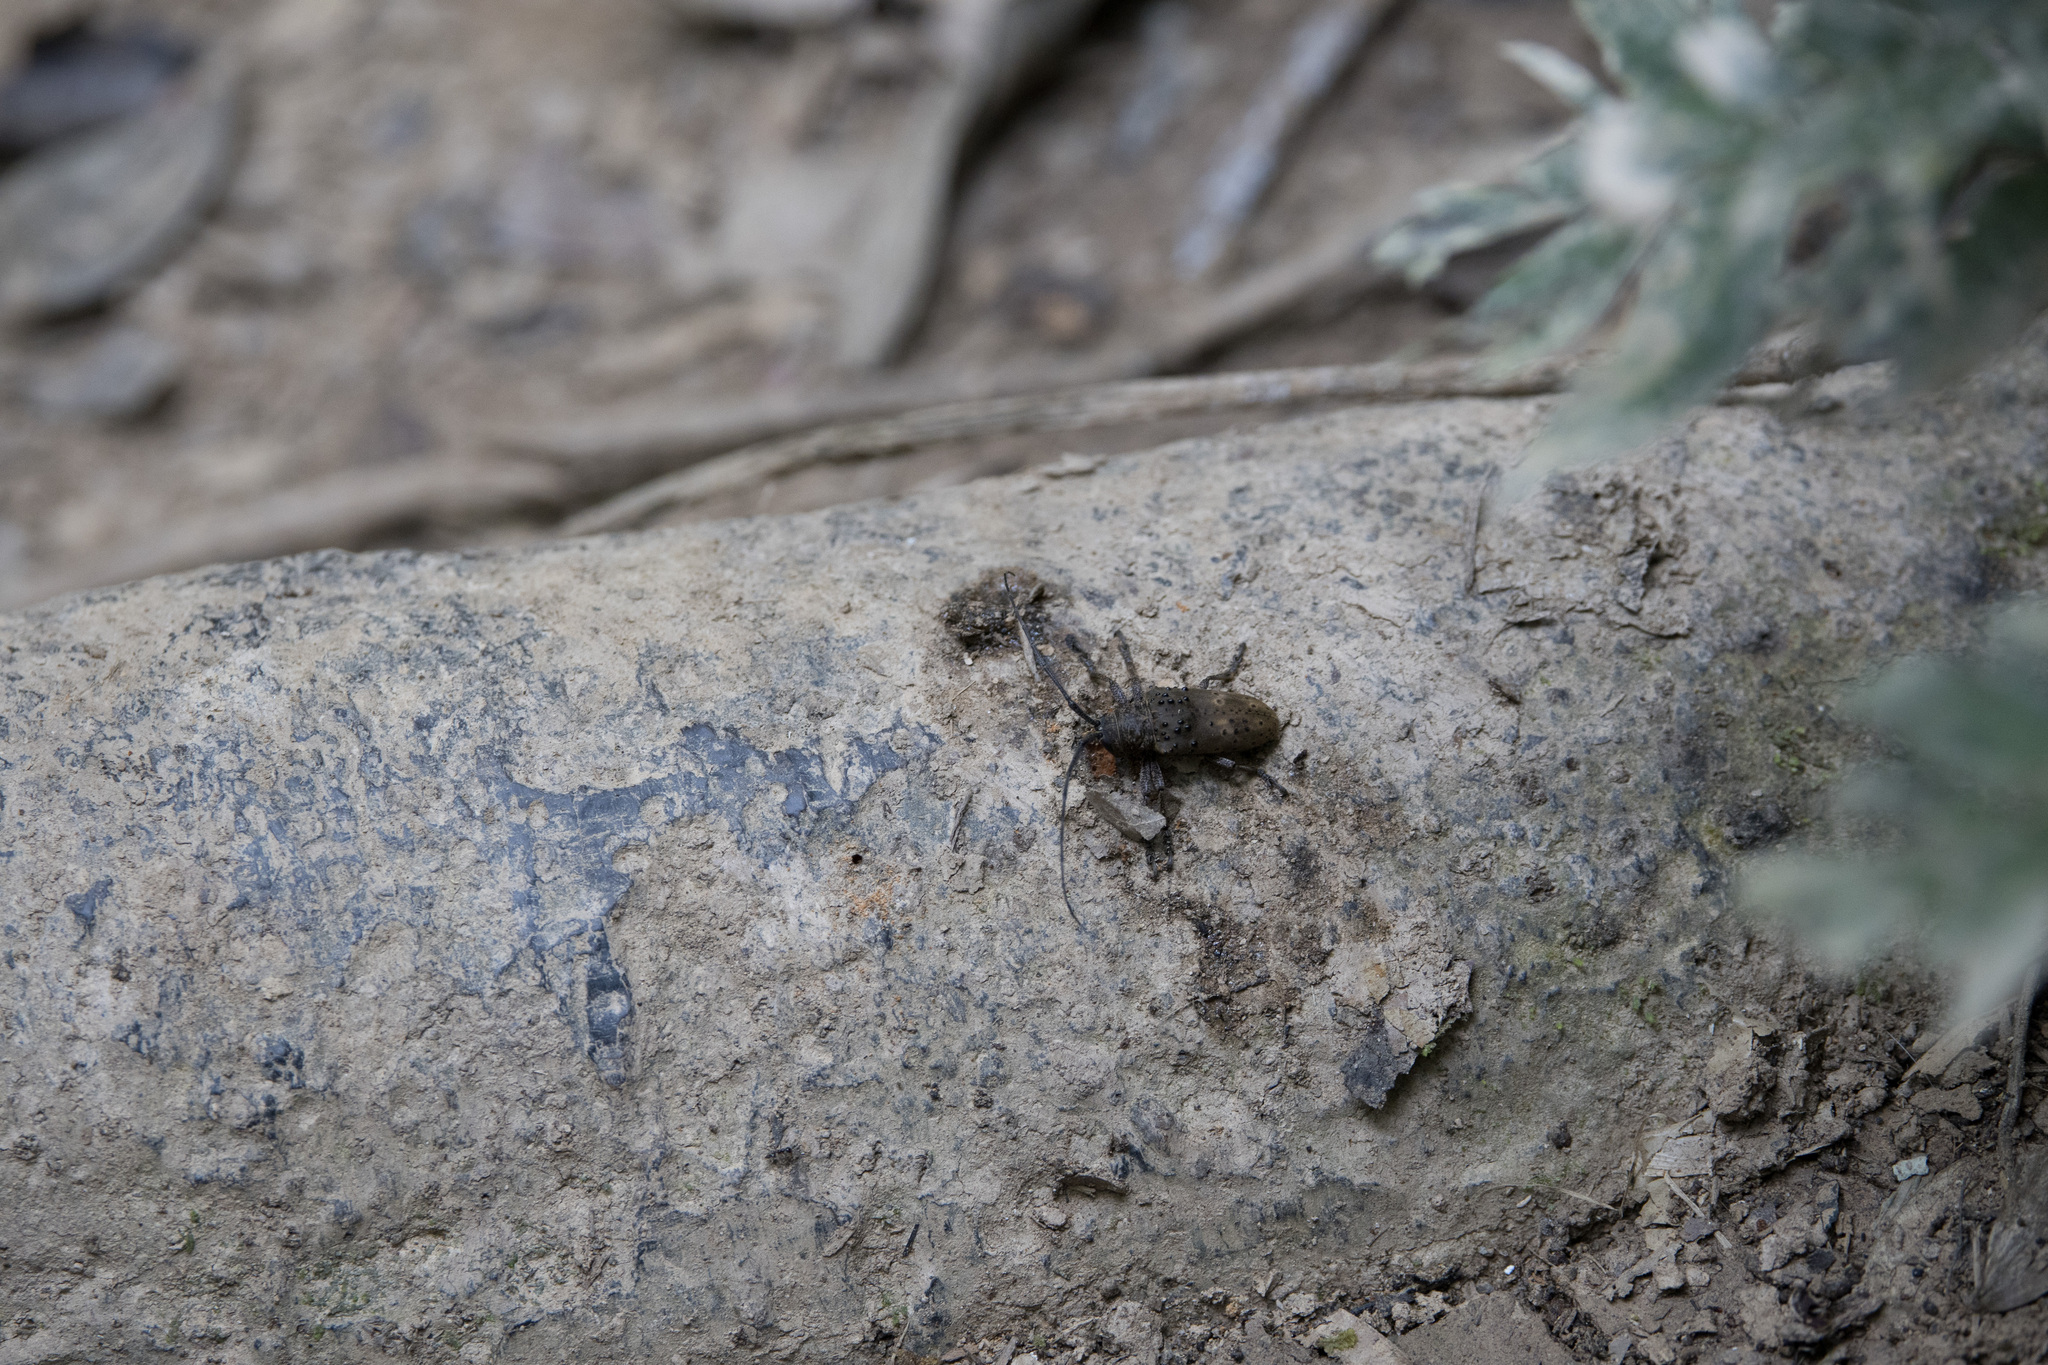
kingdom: Animalia
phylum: Arthropoda
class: Insecta
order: Coleoptera
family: Cerambycidae
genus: Jamesia
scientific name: Jamesia globifera
